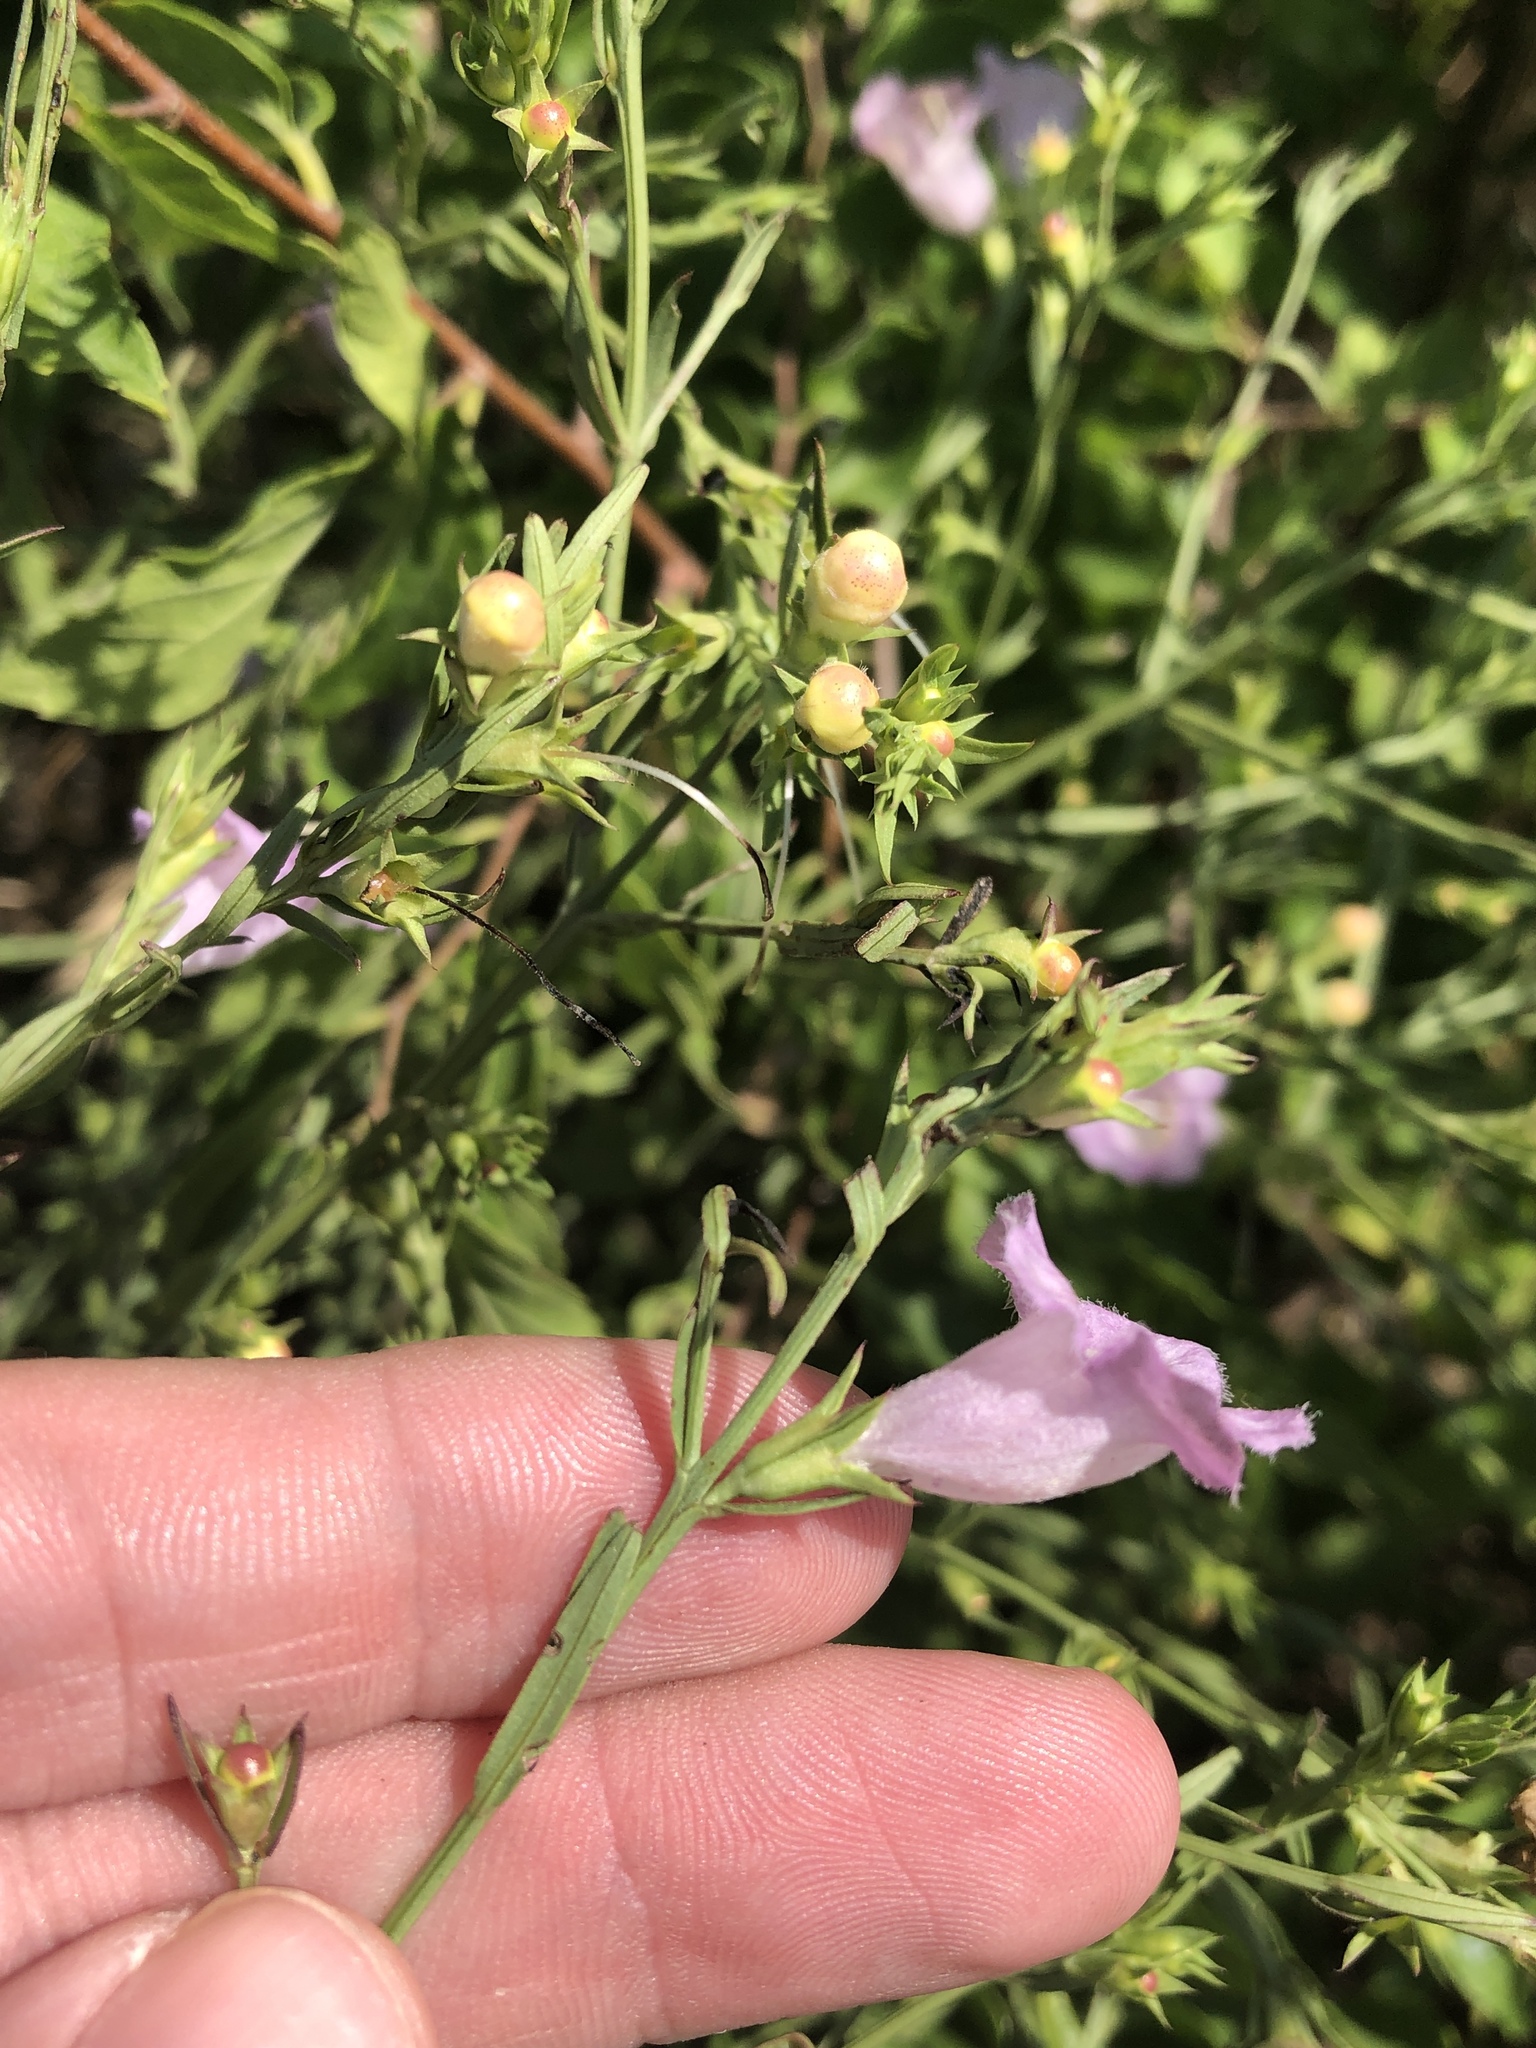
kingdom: Plantae
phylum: Tracheophyta
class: Magnoliopsida
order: Lamiales
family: Orobanchaceae
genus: Agalinis
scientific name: Agalinis heterophylla
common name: Prairie agalinis
